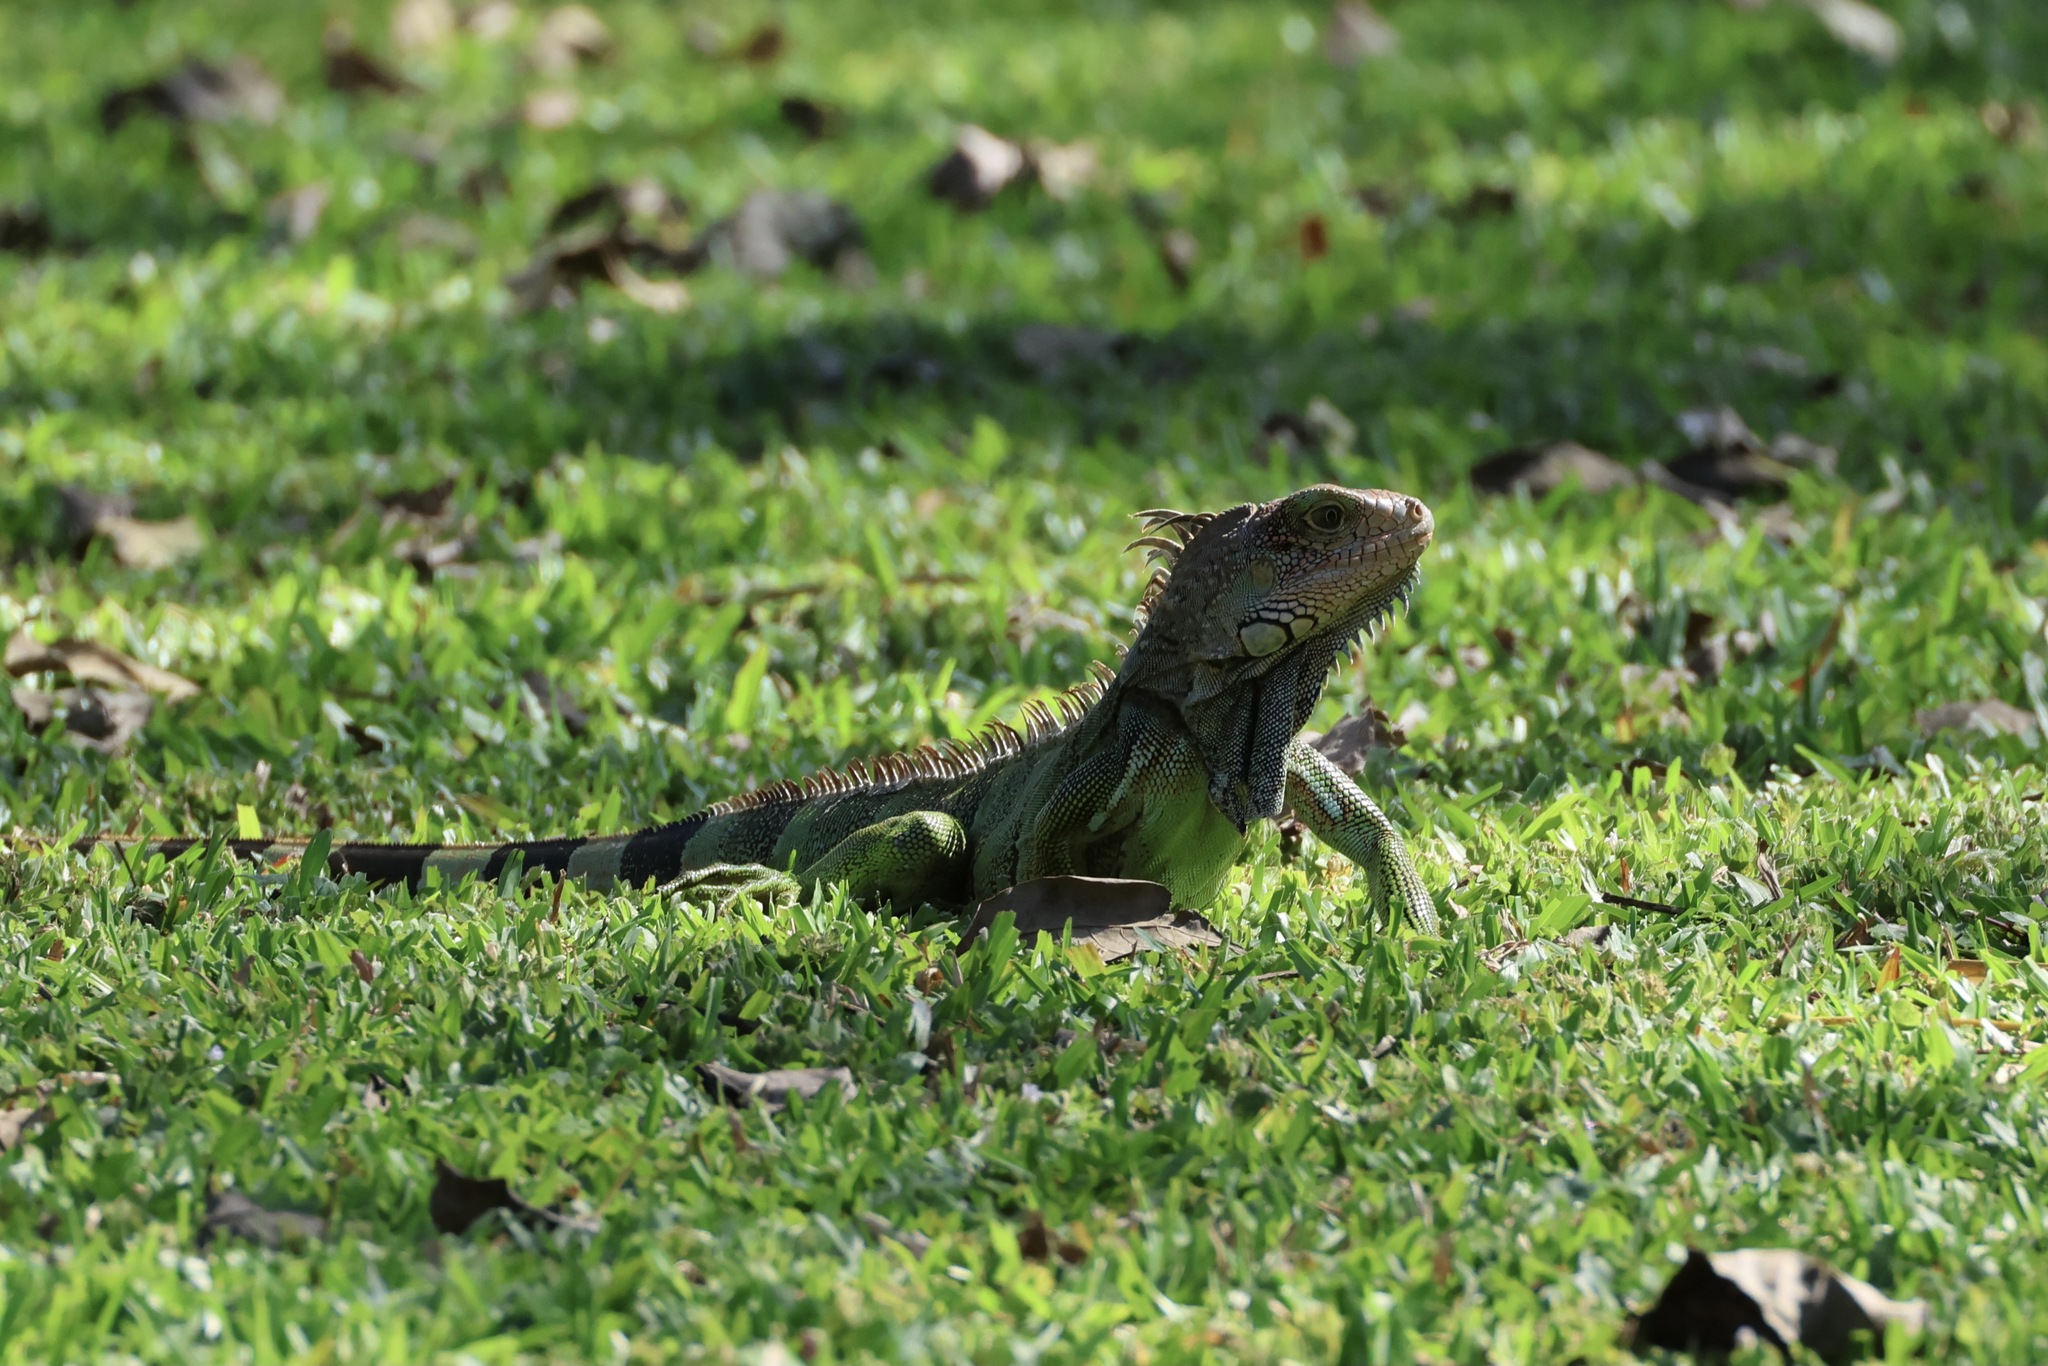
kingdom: Animalia
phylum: Chordata
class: Squamata
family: Iguanidae
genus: Iguana
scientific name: Iguana iguana
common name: Green iguana
